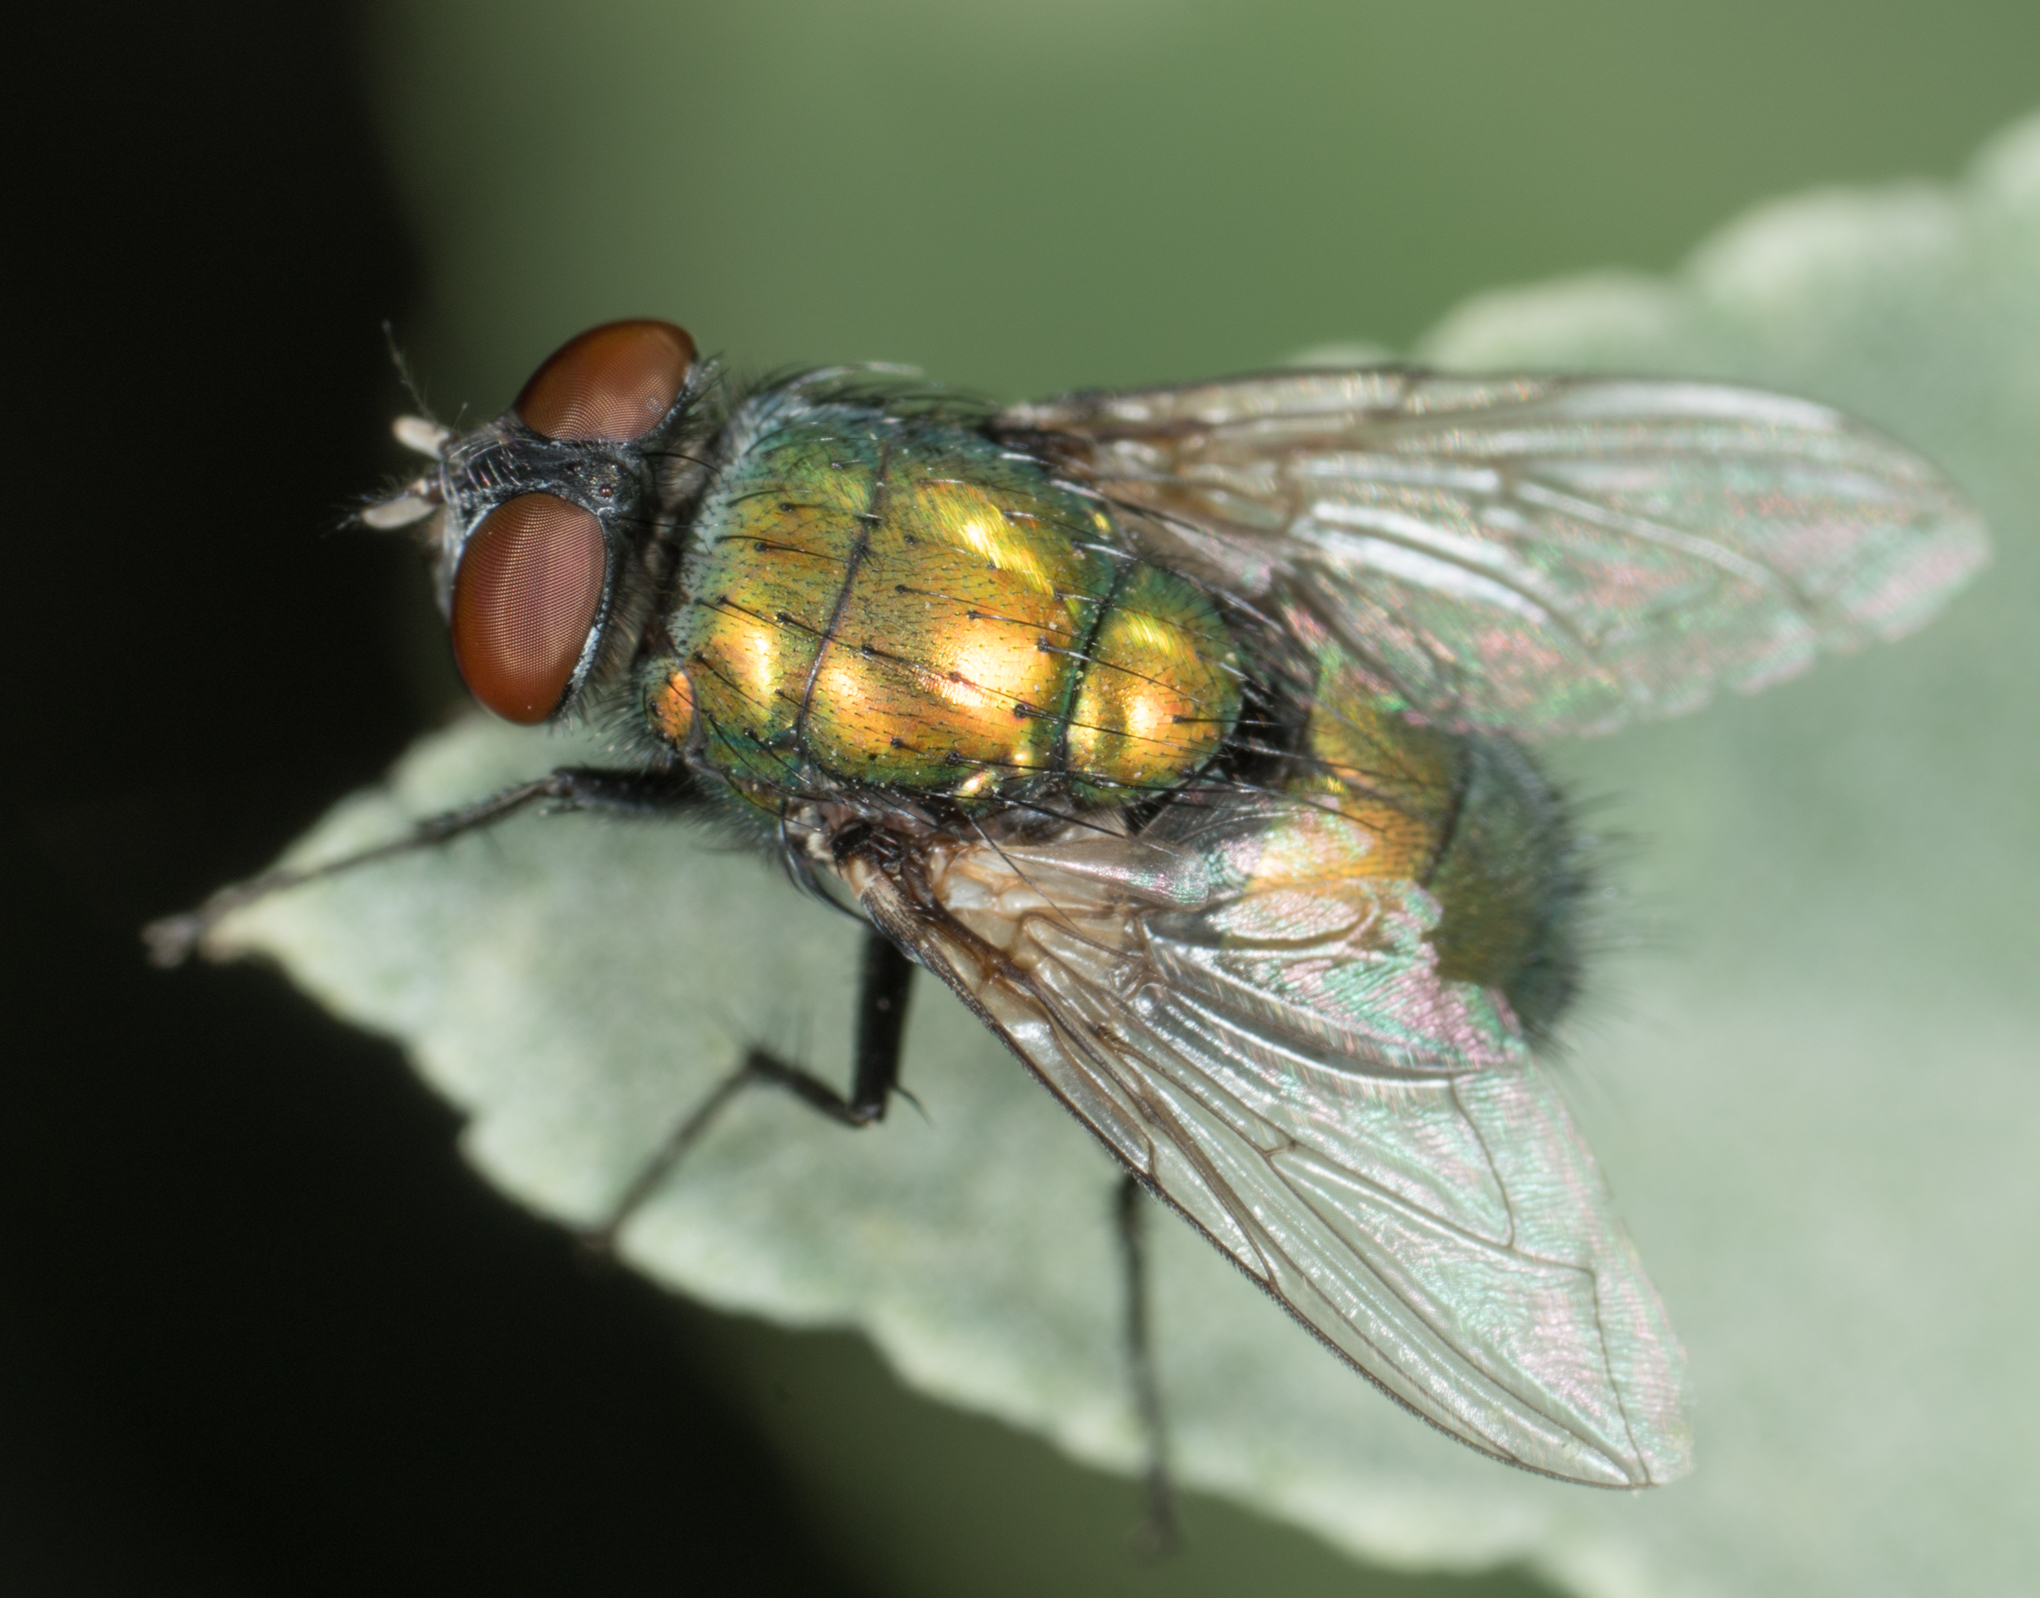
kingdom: Animalia
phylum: Arthropoda
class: Insecta
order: Diptera
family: Calliphoridae
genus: Lucilia
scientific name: Lucilia sericata
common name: Blow fly
